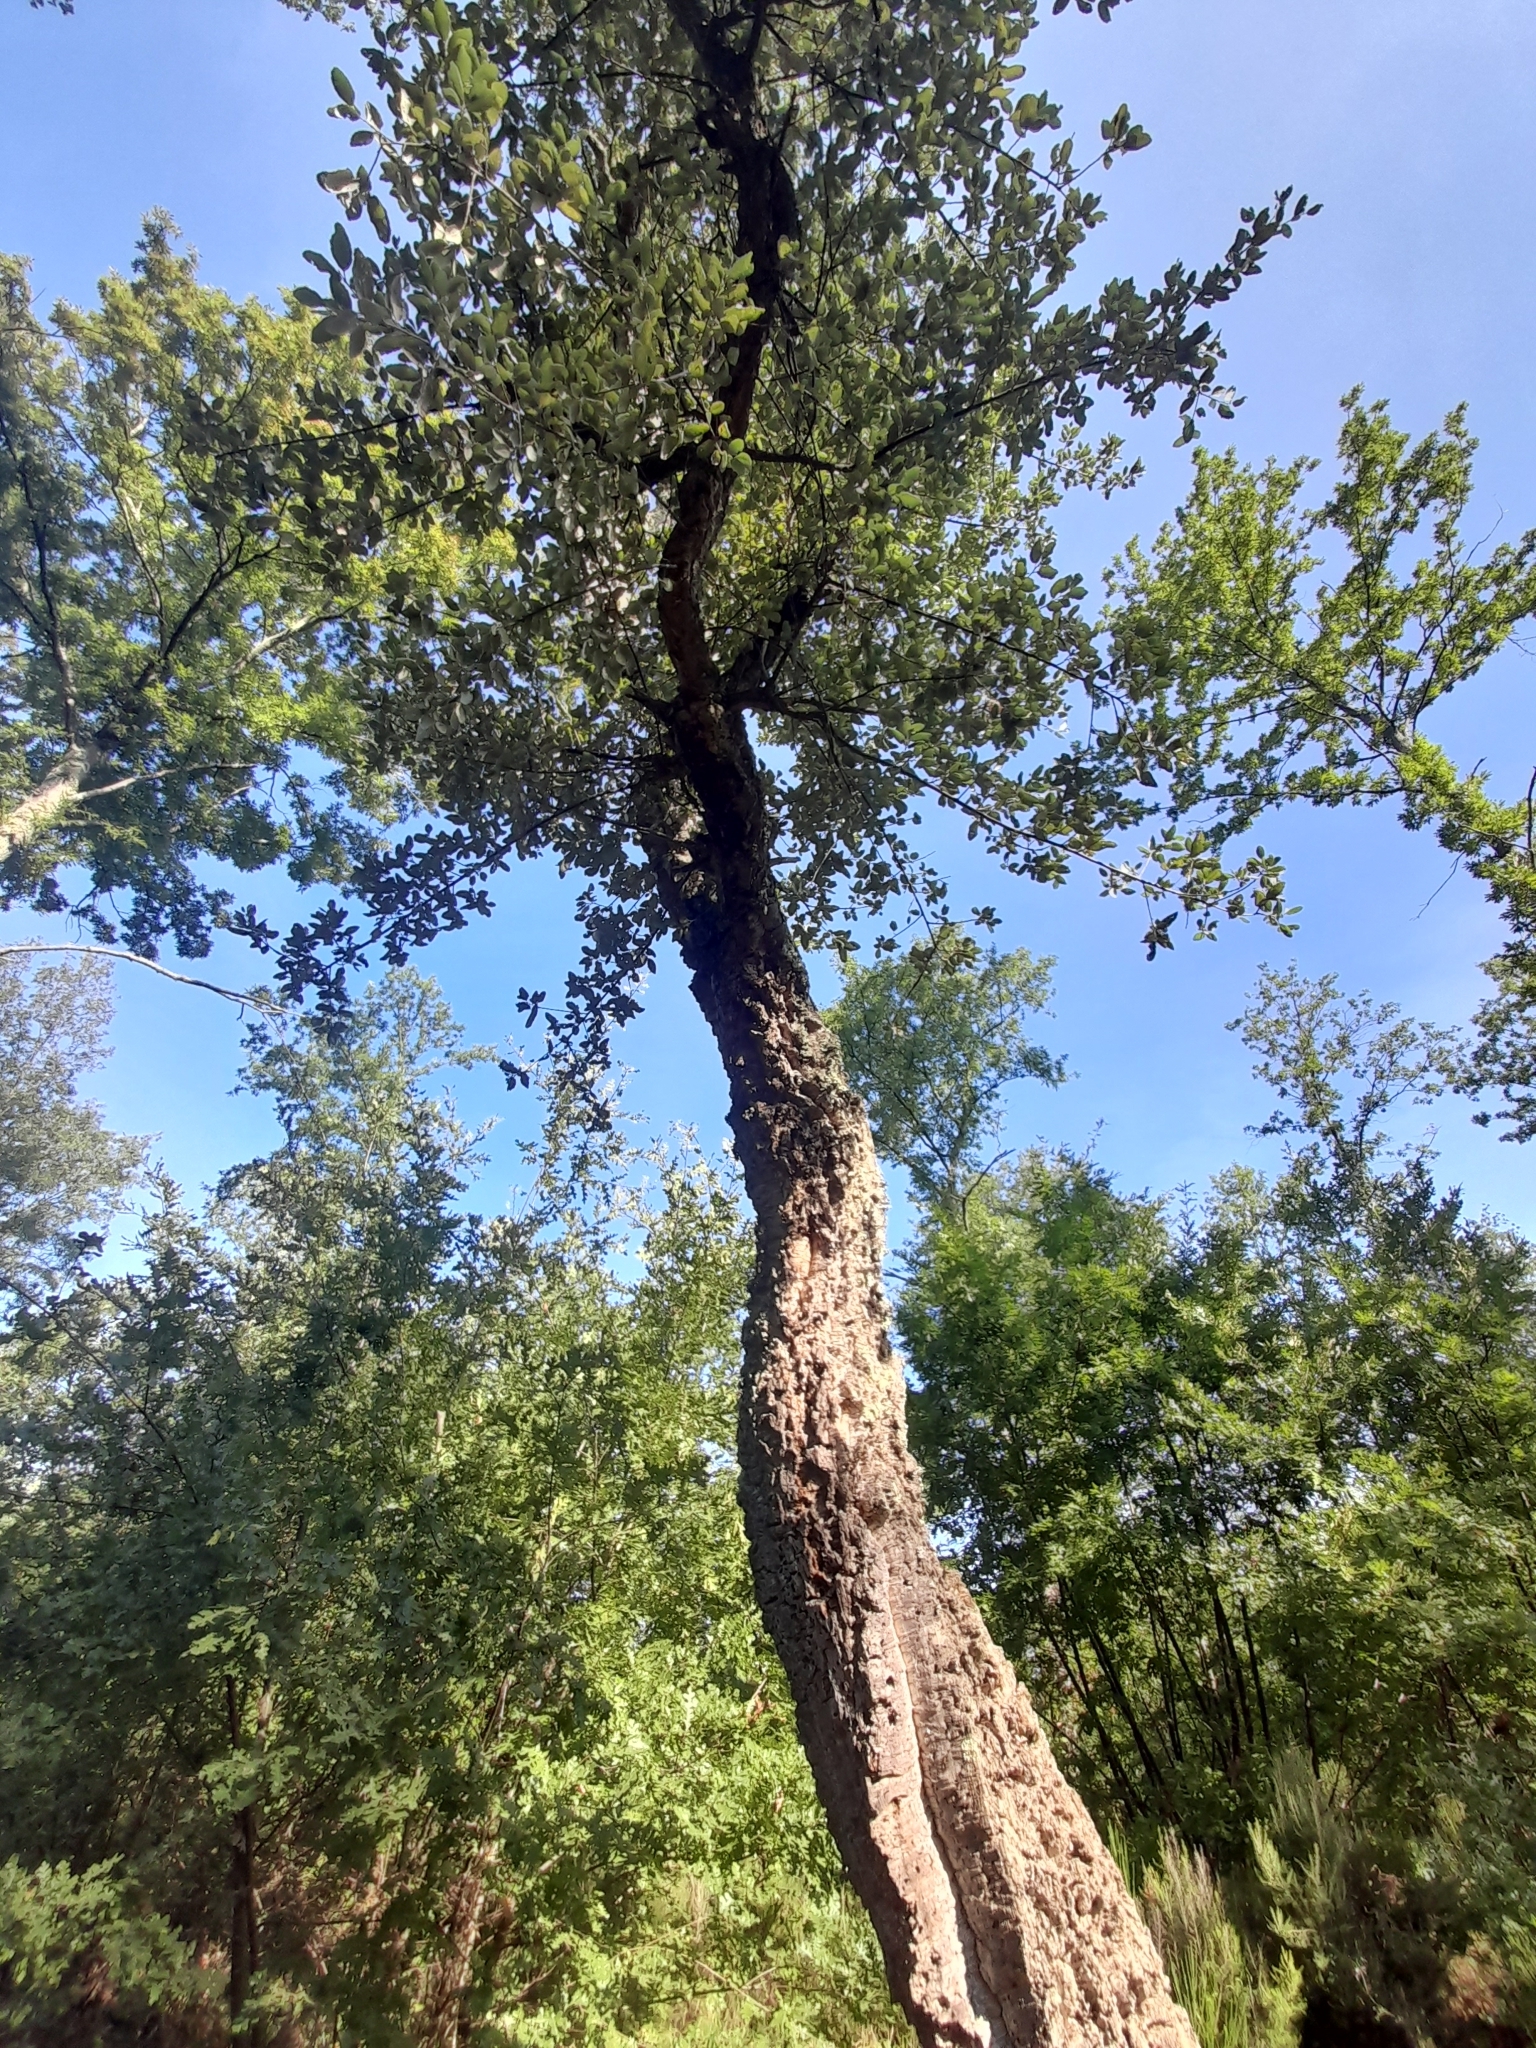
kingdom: Plantae
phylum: Tracheophyta
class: Magnoliopsida
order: Fagales
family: Fagaceae
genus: Quercus
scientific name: Quercus suber
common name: Cork oak
